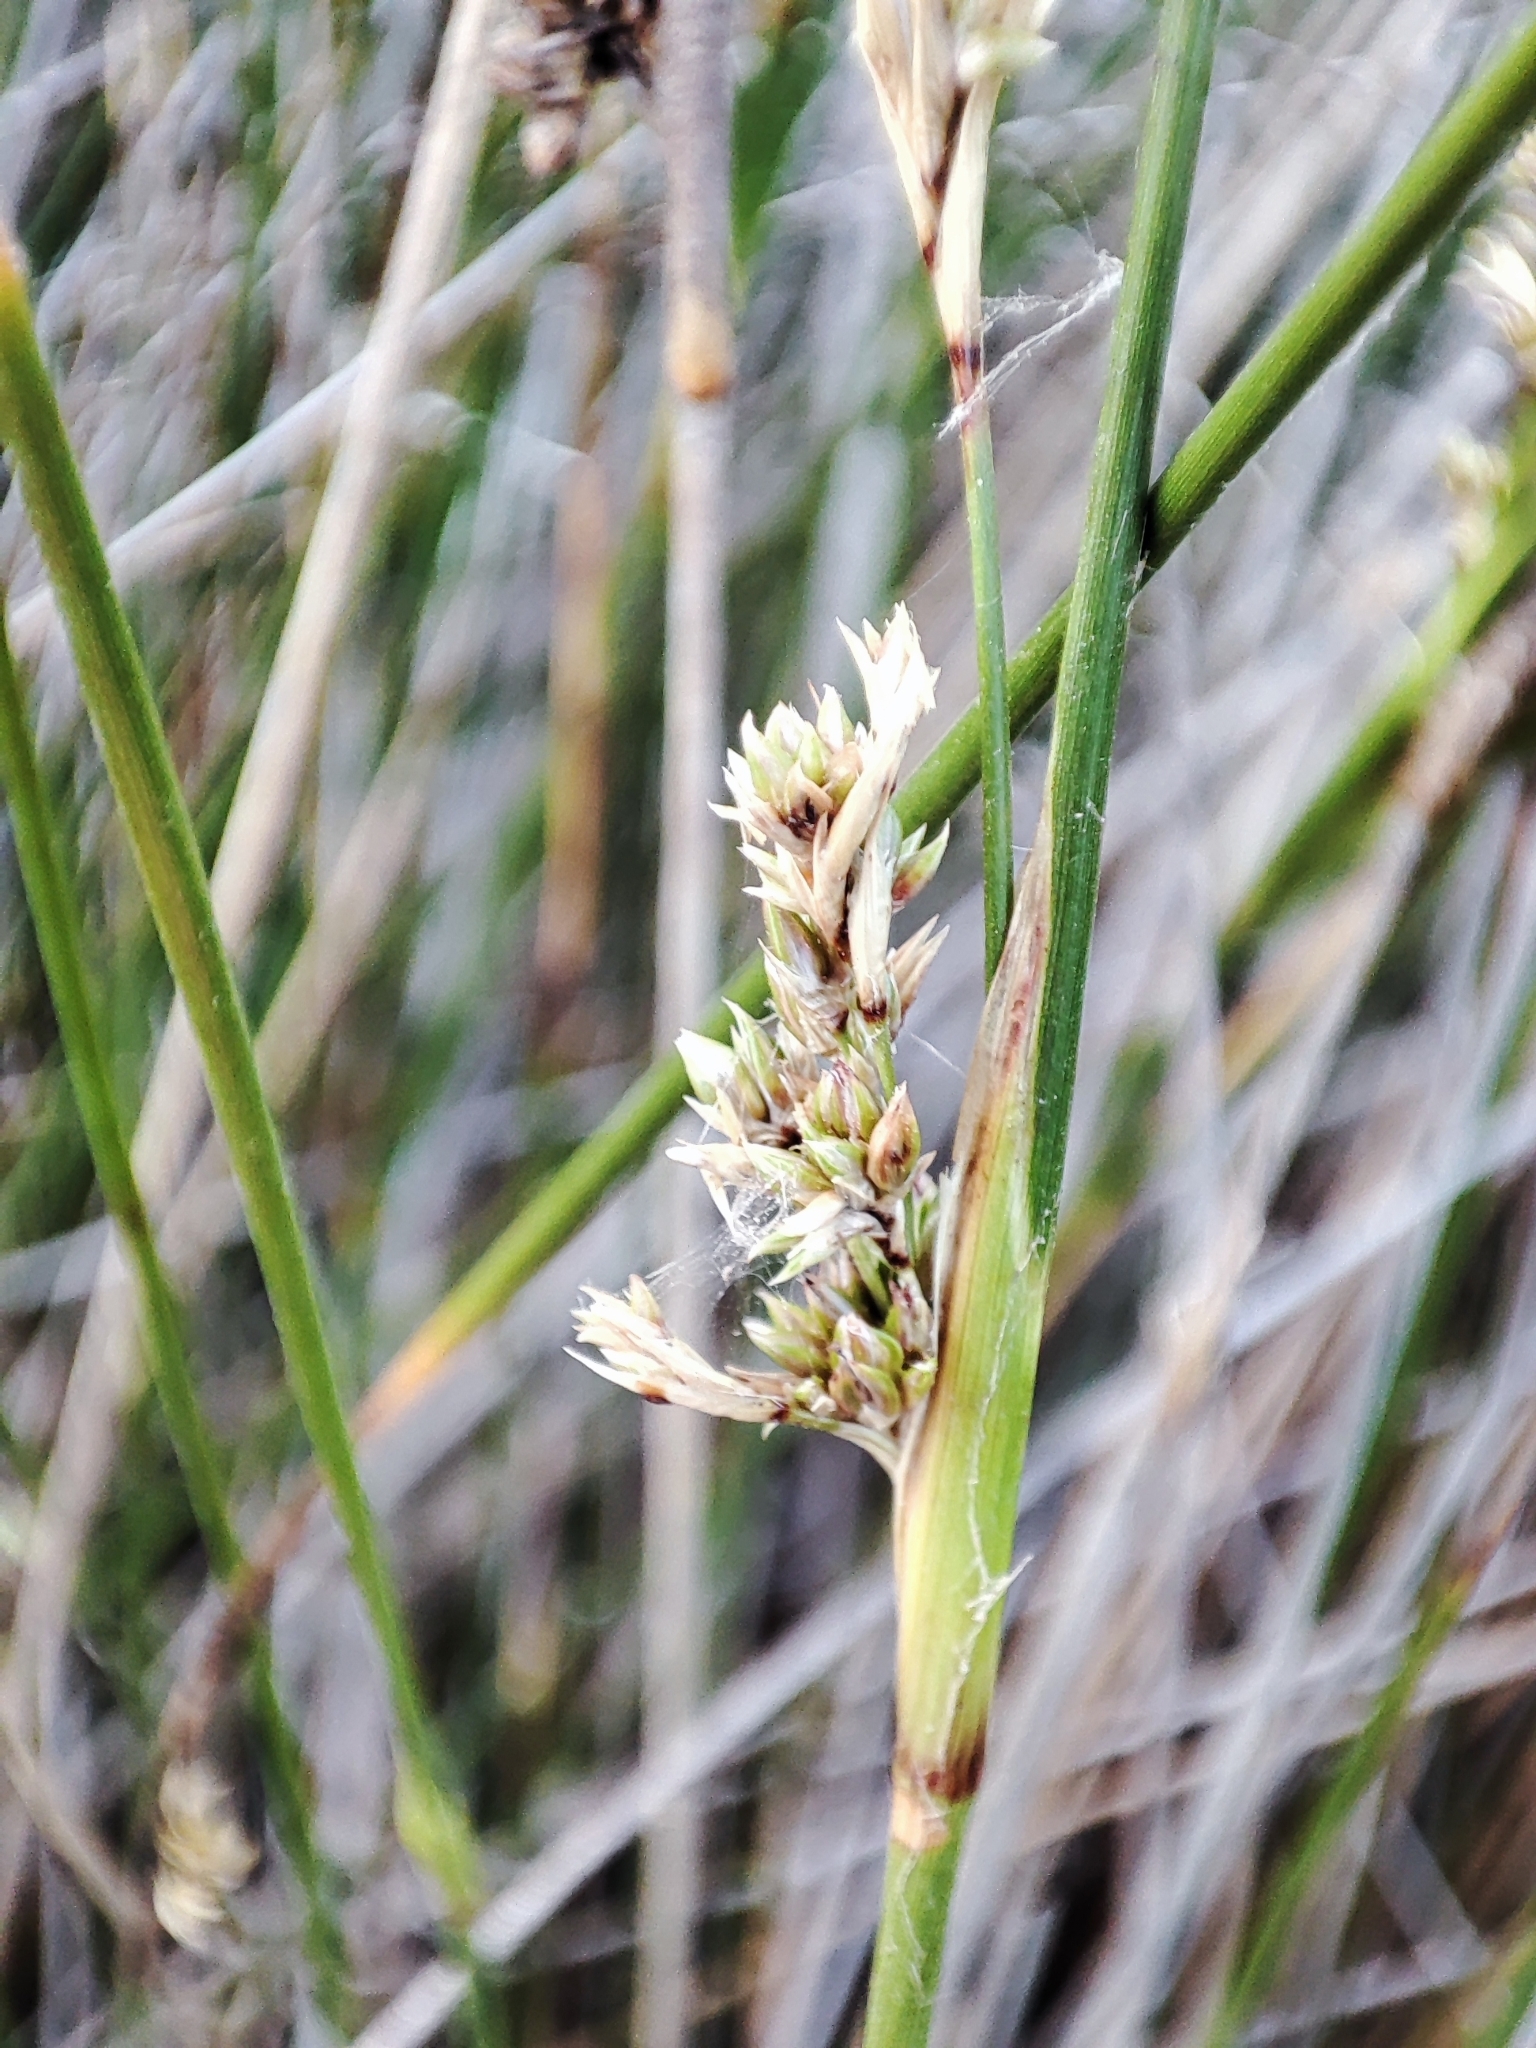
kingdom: Plantae
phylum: Tracheophyta
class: Liliopsida
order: Poales
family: Juncaceae
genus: Juncus
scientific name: Juncus maritimus
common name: Sea rush
